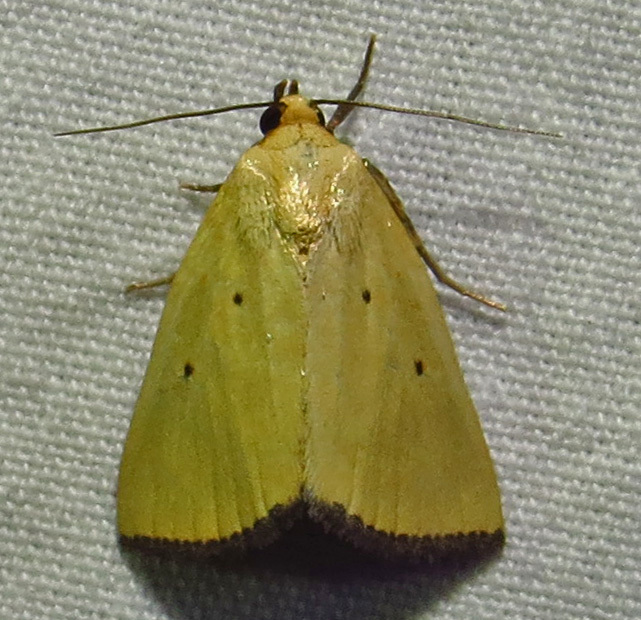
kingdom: Animalia
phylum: Arthropoda
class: Insecta
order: Lepidoptera
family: Noctuidae
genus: Marimatha
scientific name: Marimatha nigrofimbria
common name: Black-bordered lemon moth
